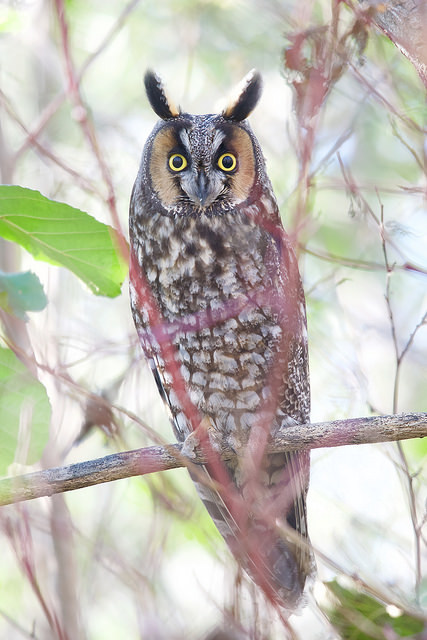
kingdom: Animalia
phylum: Chordata
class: Aves
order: Strigiformes
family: Strigidae
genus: Asio
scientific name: Asio otus
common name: Long-eared owl
